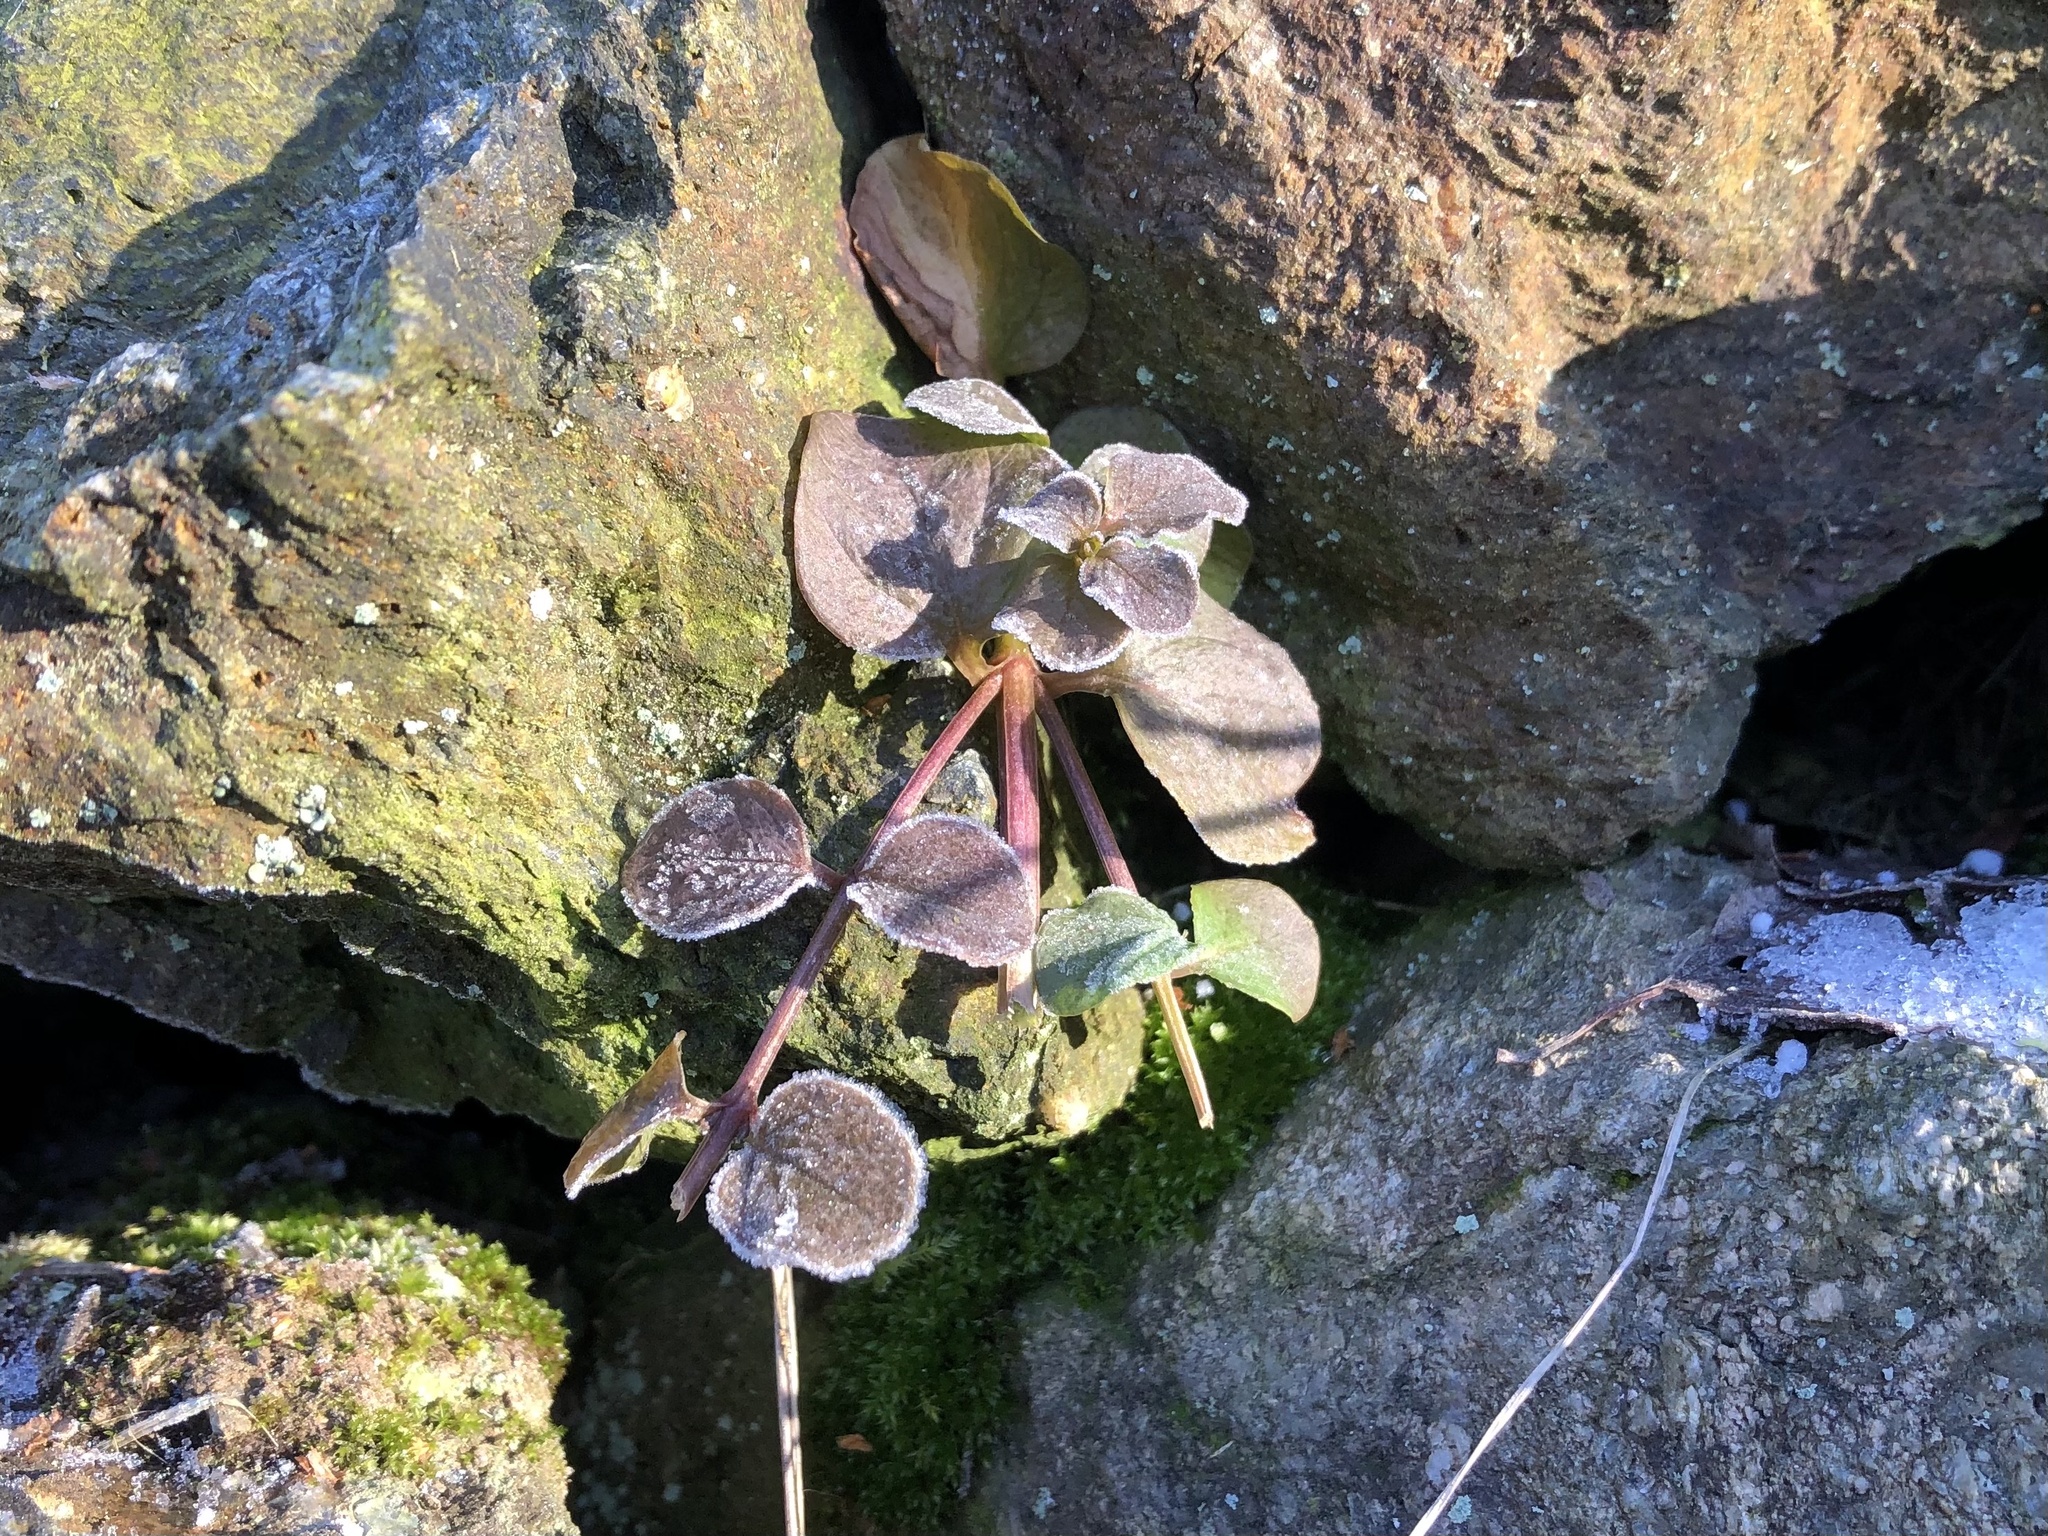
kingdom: Plantae
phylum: Tracheophyta
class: Magnoliopsida
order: Ericales
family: Primulaceae
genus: Lysimachia
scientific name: Lysimachia nummularia
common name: Moneywort
